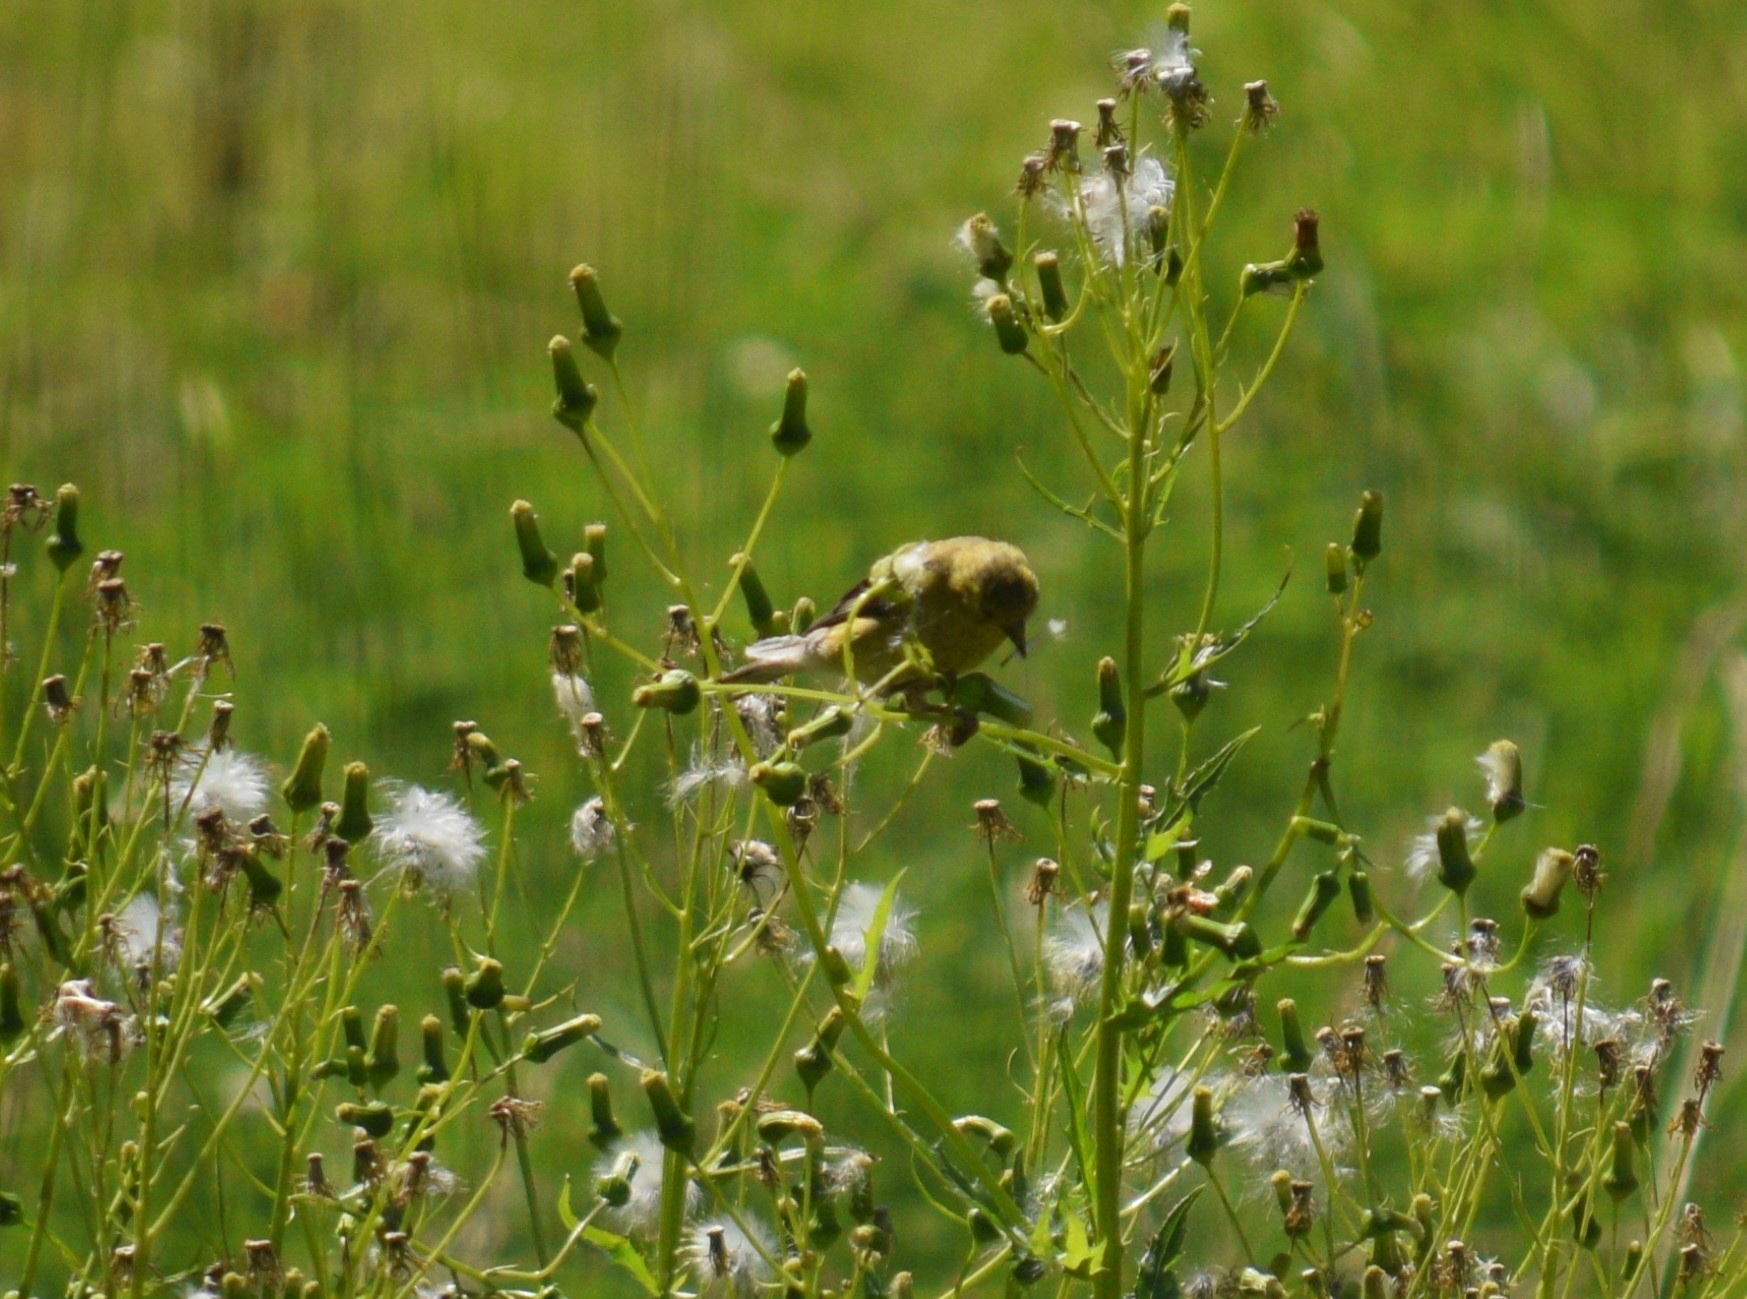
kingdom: Animalia
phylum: Chordata
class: Aves
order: Passeriformes
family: Fringillidae
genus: Spinus
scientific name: Spinus tristis
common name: American goldfinch
